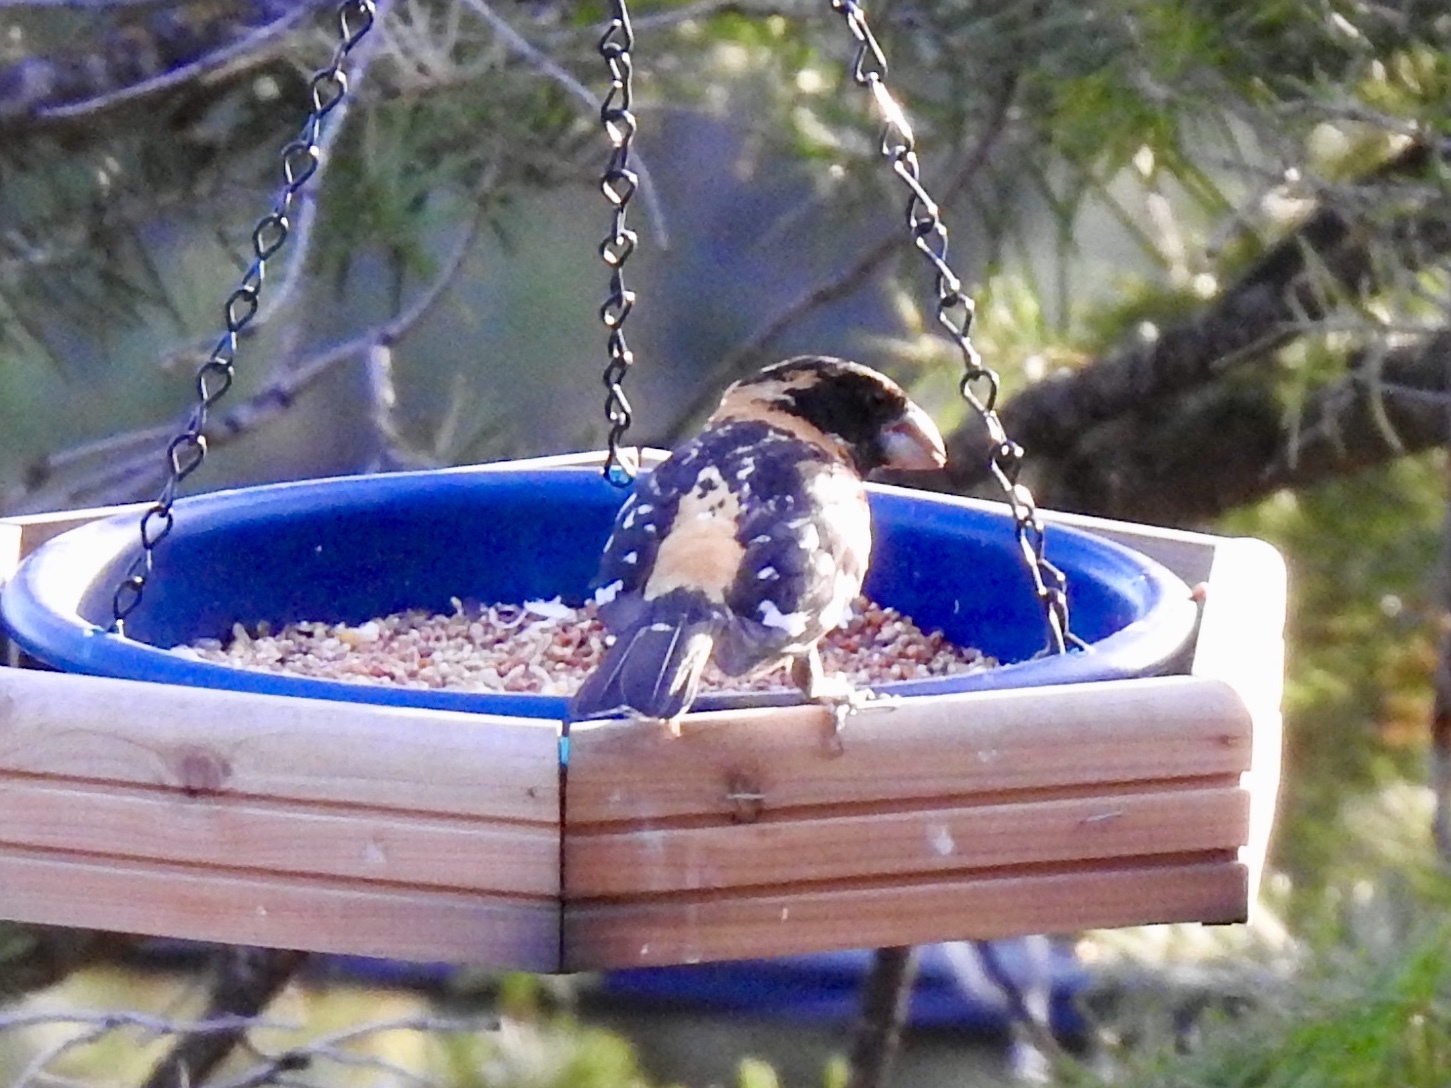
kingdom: Animalia
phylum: Chordata
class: Aves
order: Passeriformes
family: Cardinalidae
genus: Pheucticus
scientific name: Pheucticus melanocephalus
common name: Black-headed grosbeak
